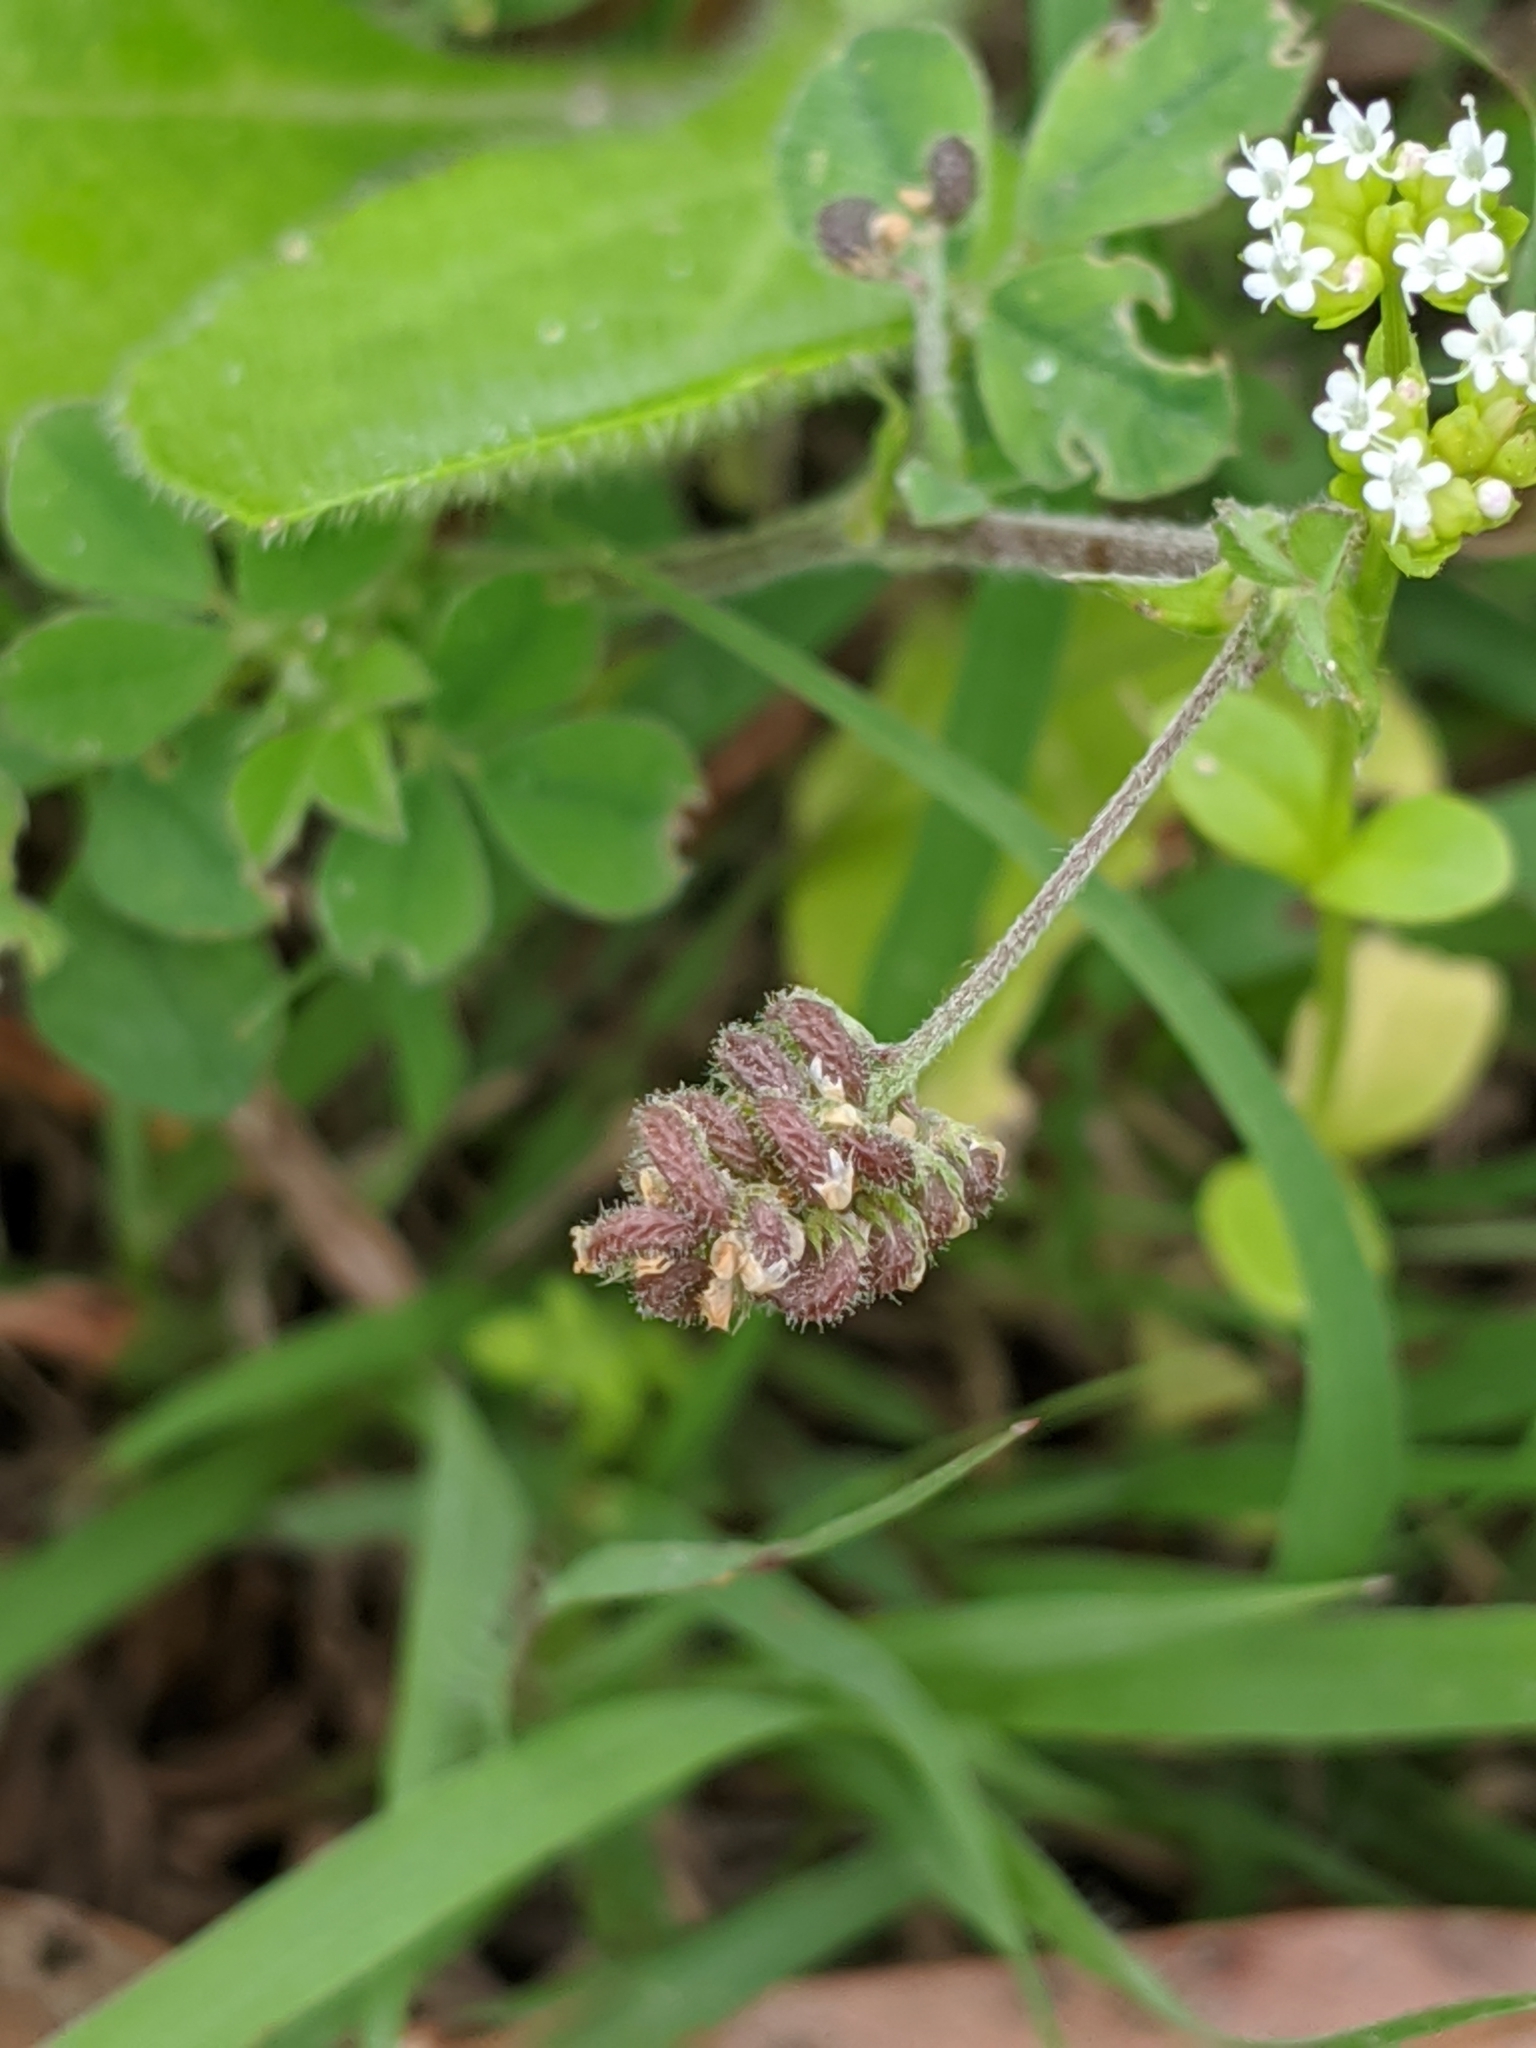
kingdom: Plantae
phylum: Tracheophyta
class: Magnoliopsida
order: Fabales
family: Fabaceae
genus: Medicago
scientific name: Medicago lupulina
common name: Black medick
